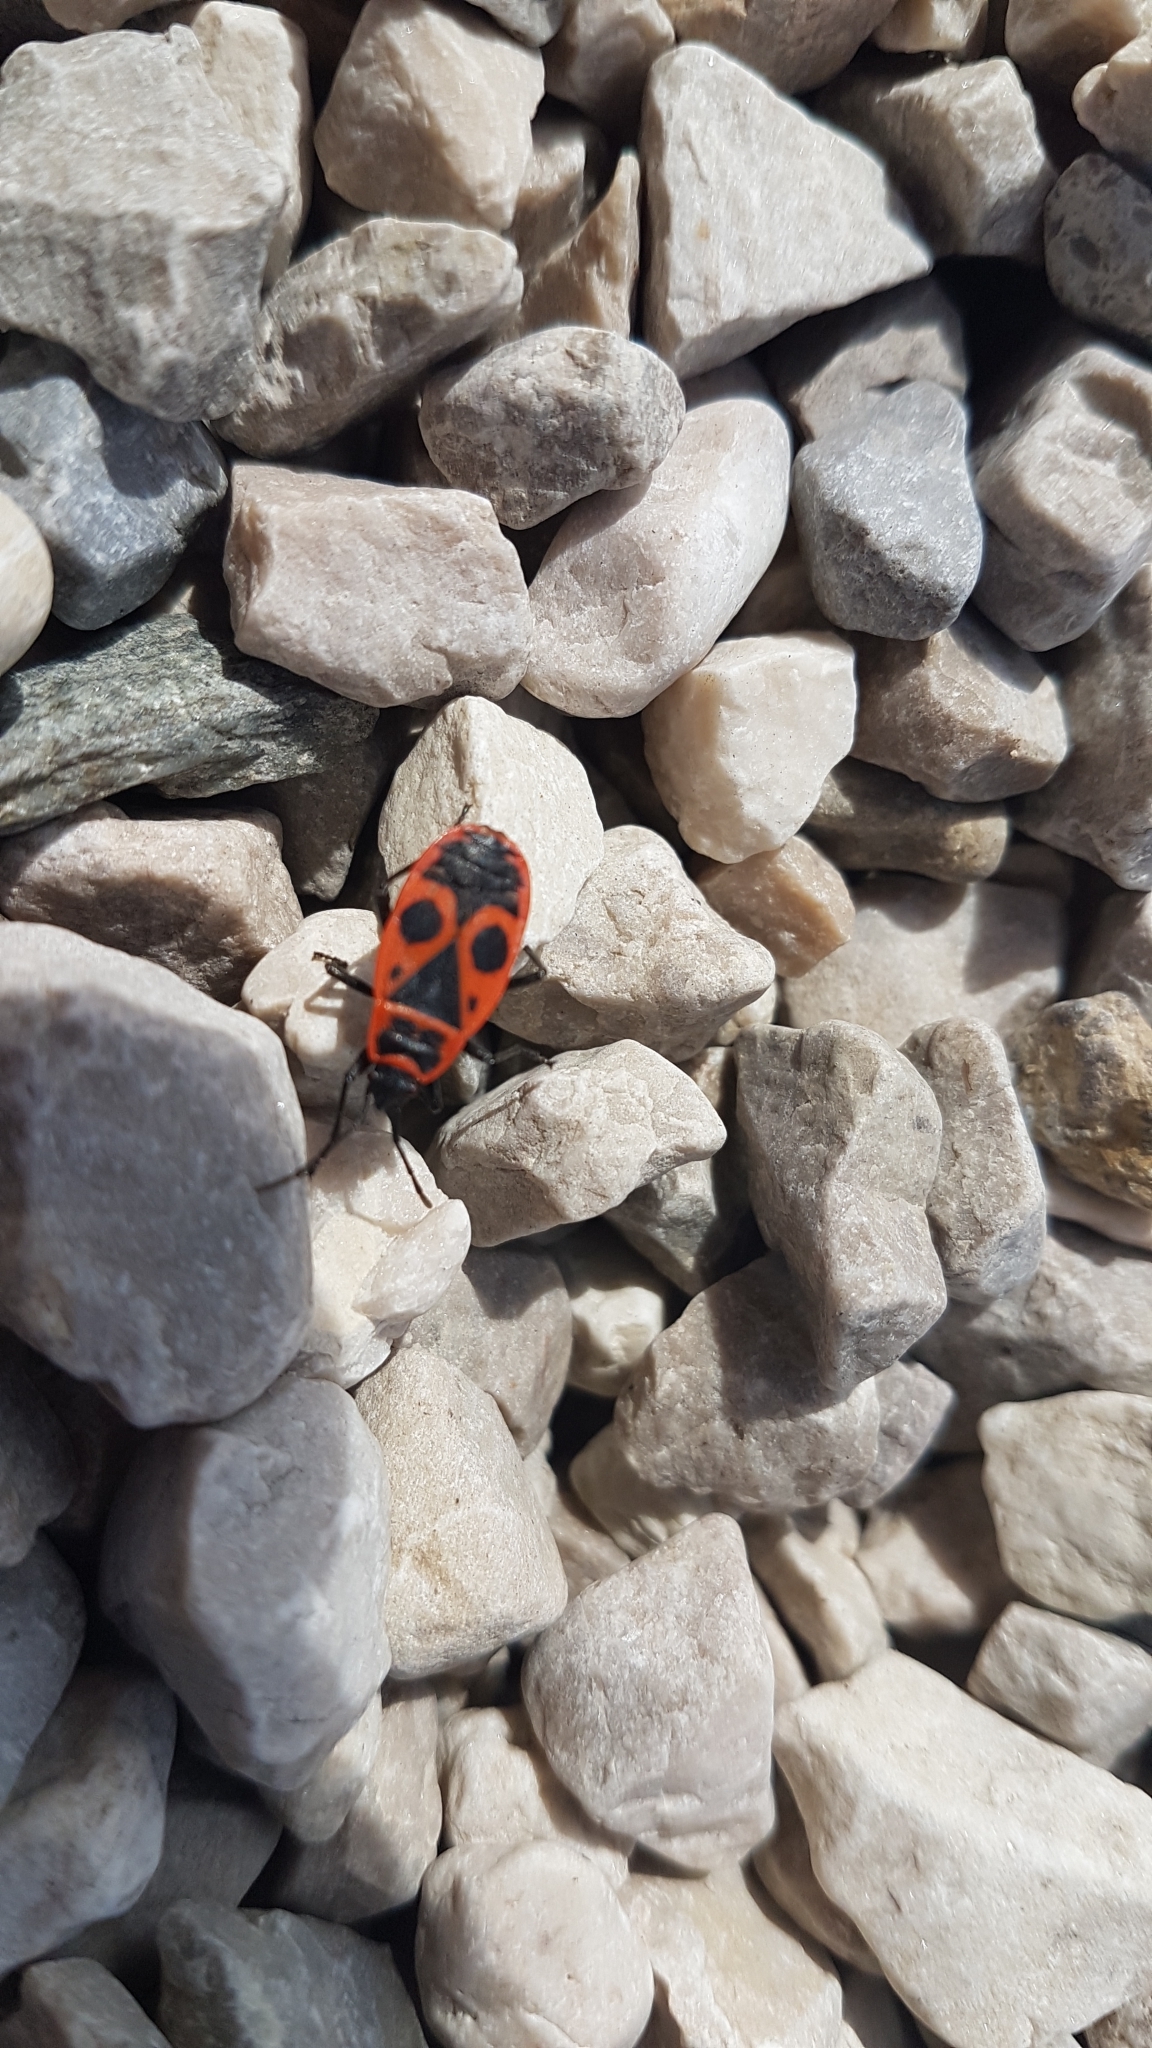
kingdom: Animalia
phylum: Arthropoda
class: Insecta
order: Hemiptera
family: Pyrrhocoridae
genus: Pyrrhocoris
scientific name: Pyrrhocoris apterus
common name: Firebug
